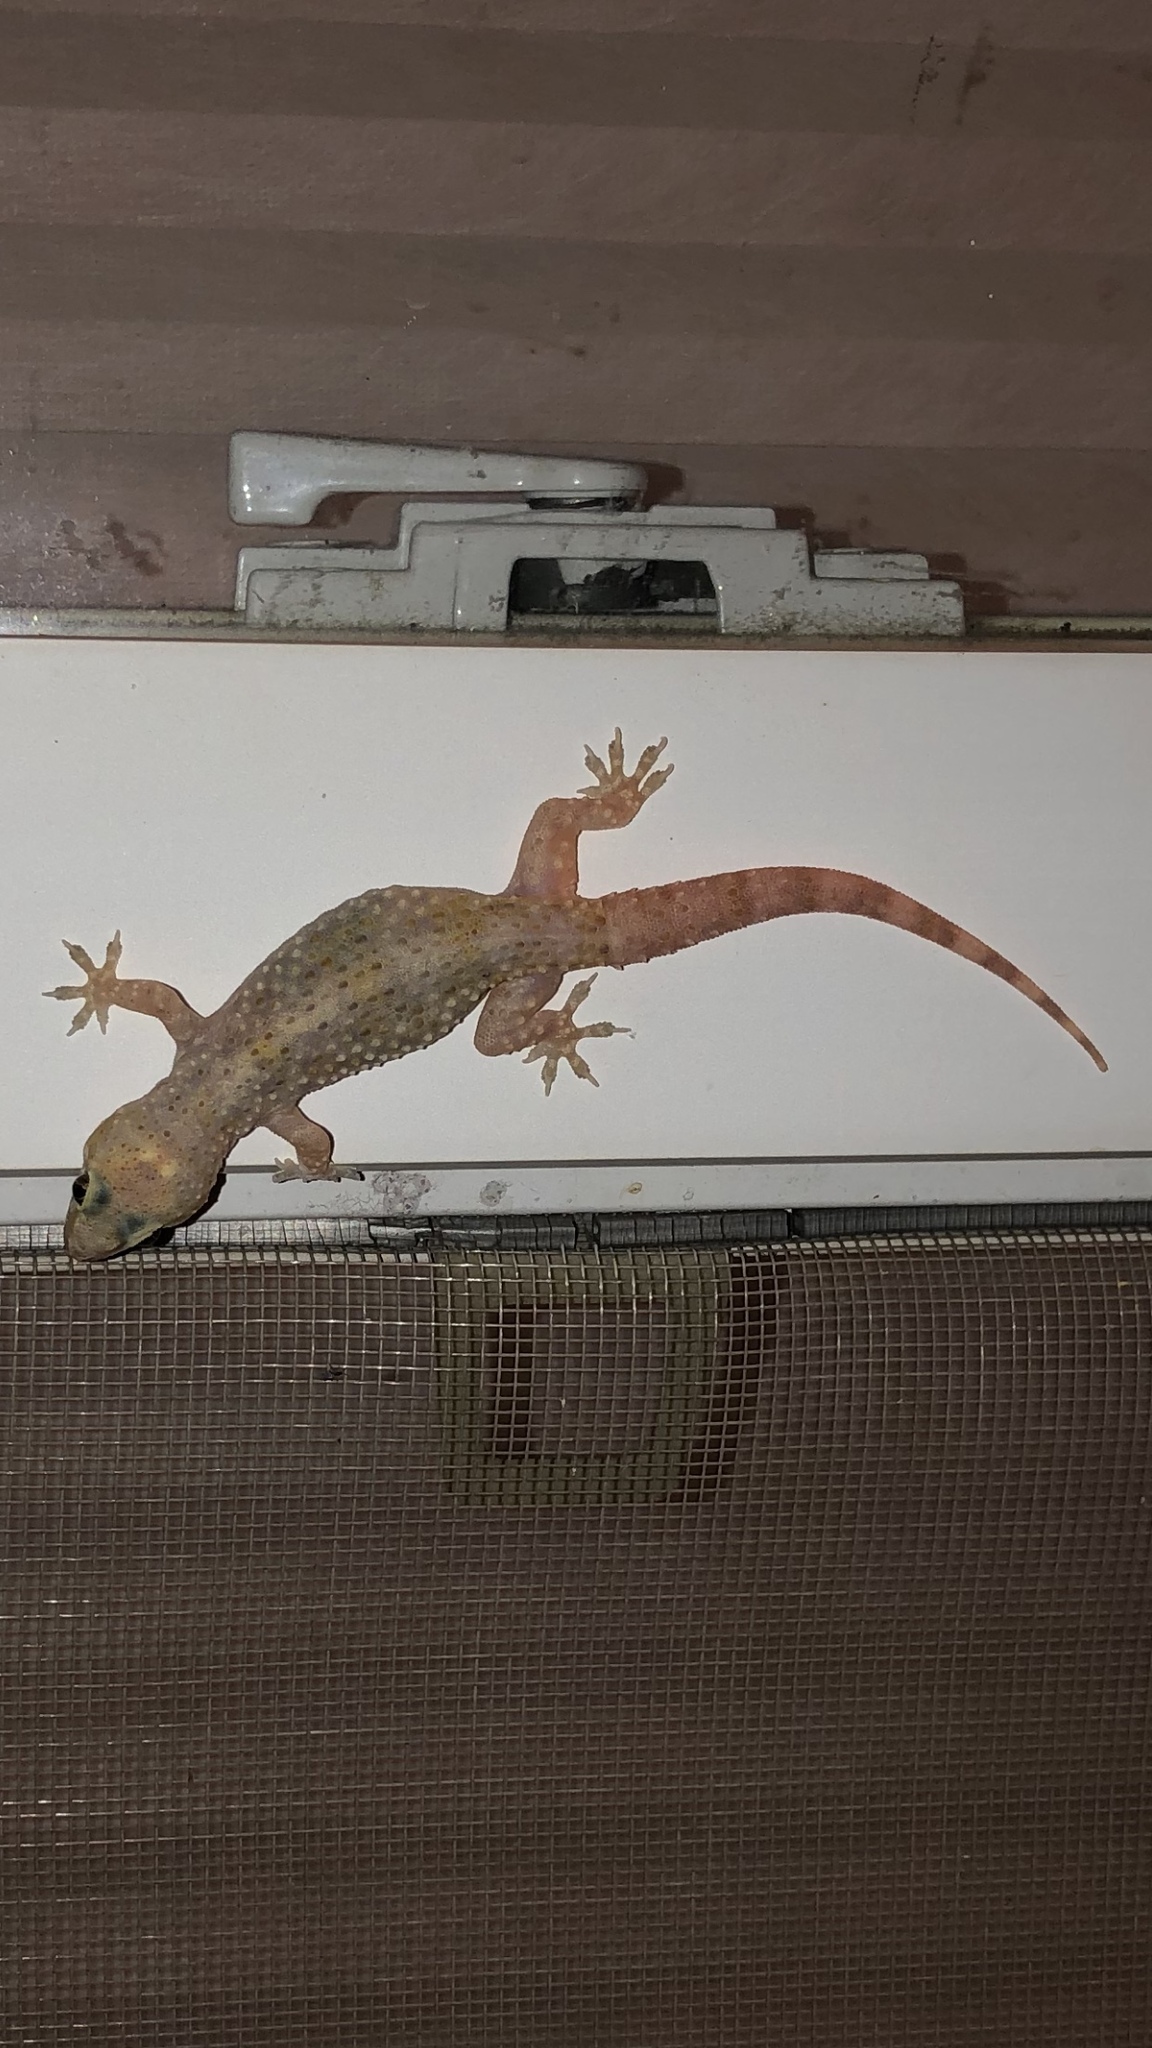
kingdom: Animalia
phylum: Chordata
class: Squamata
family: Gekkonidae
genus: Hemidactylus
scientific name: Hemidactylus turcicus
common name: Turkish gecko
